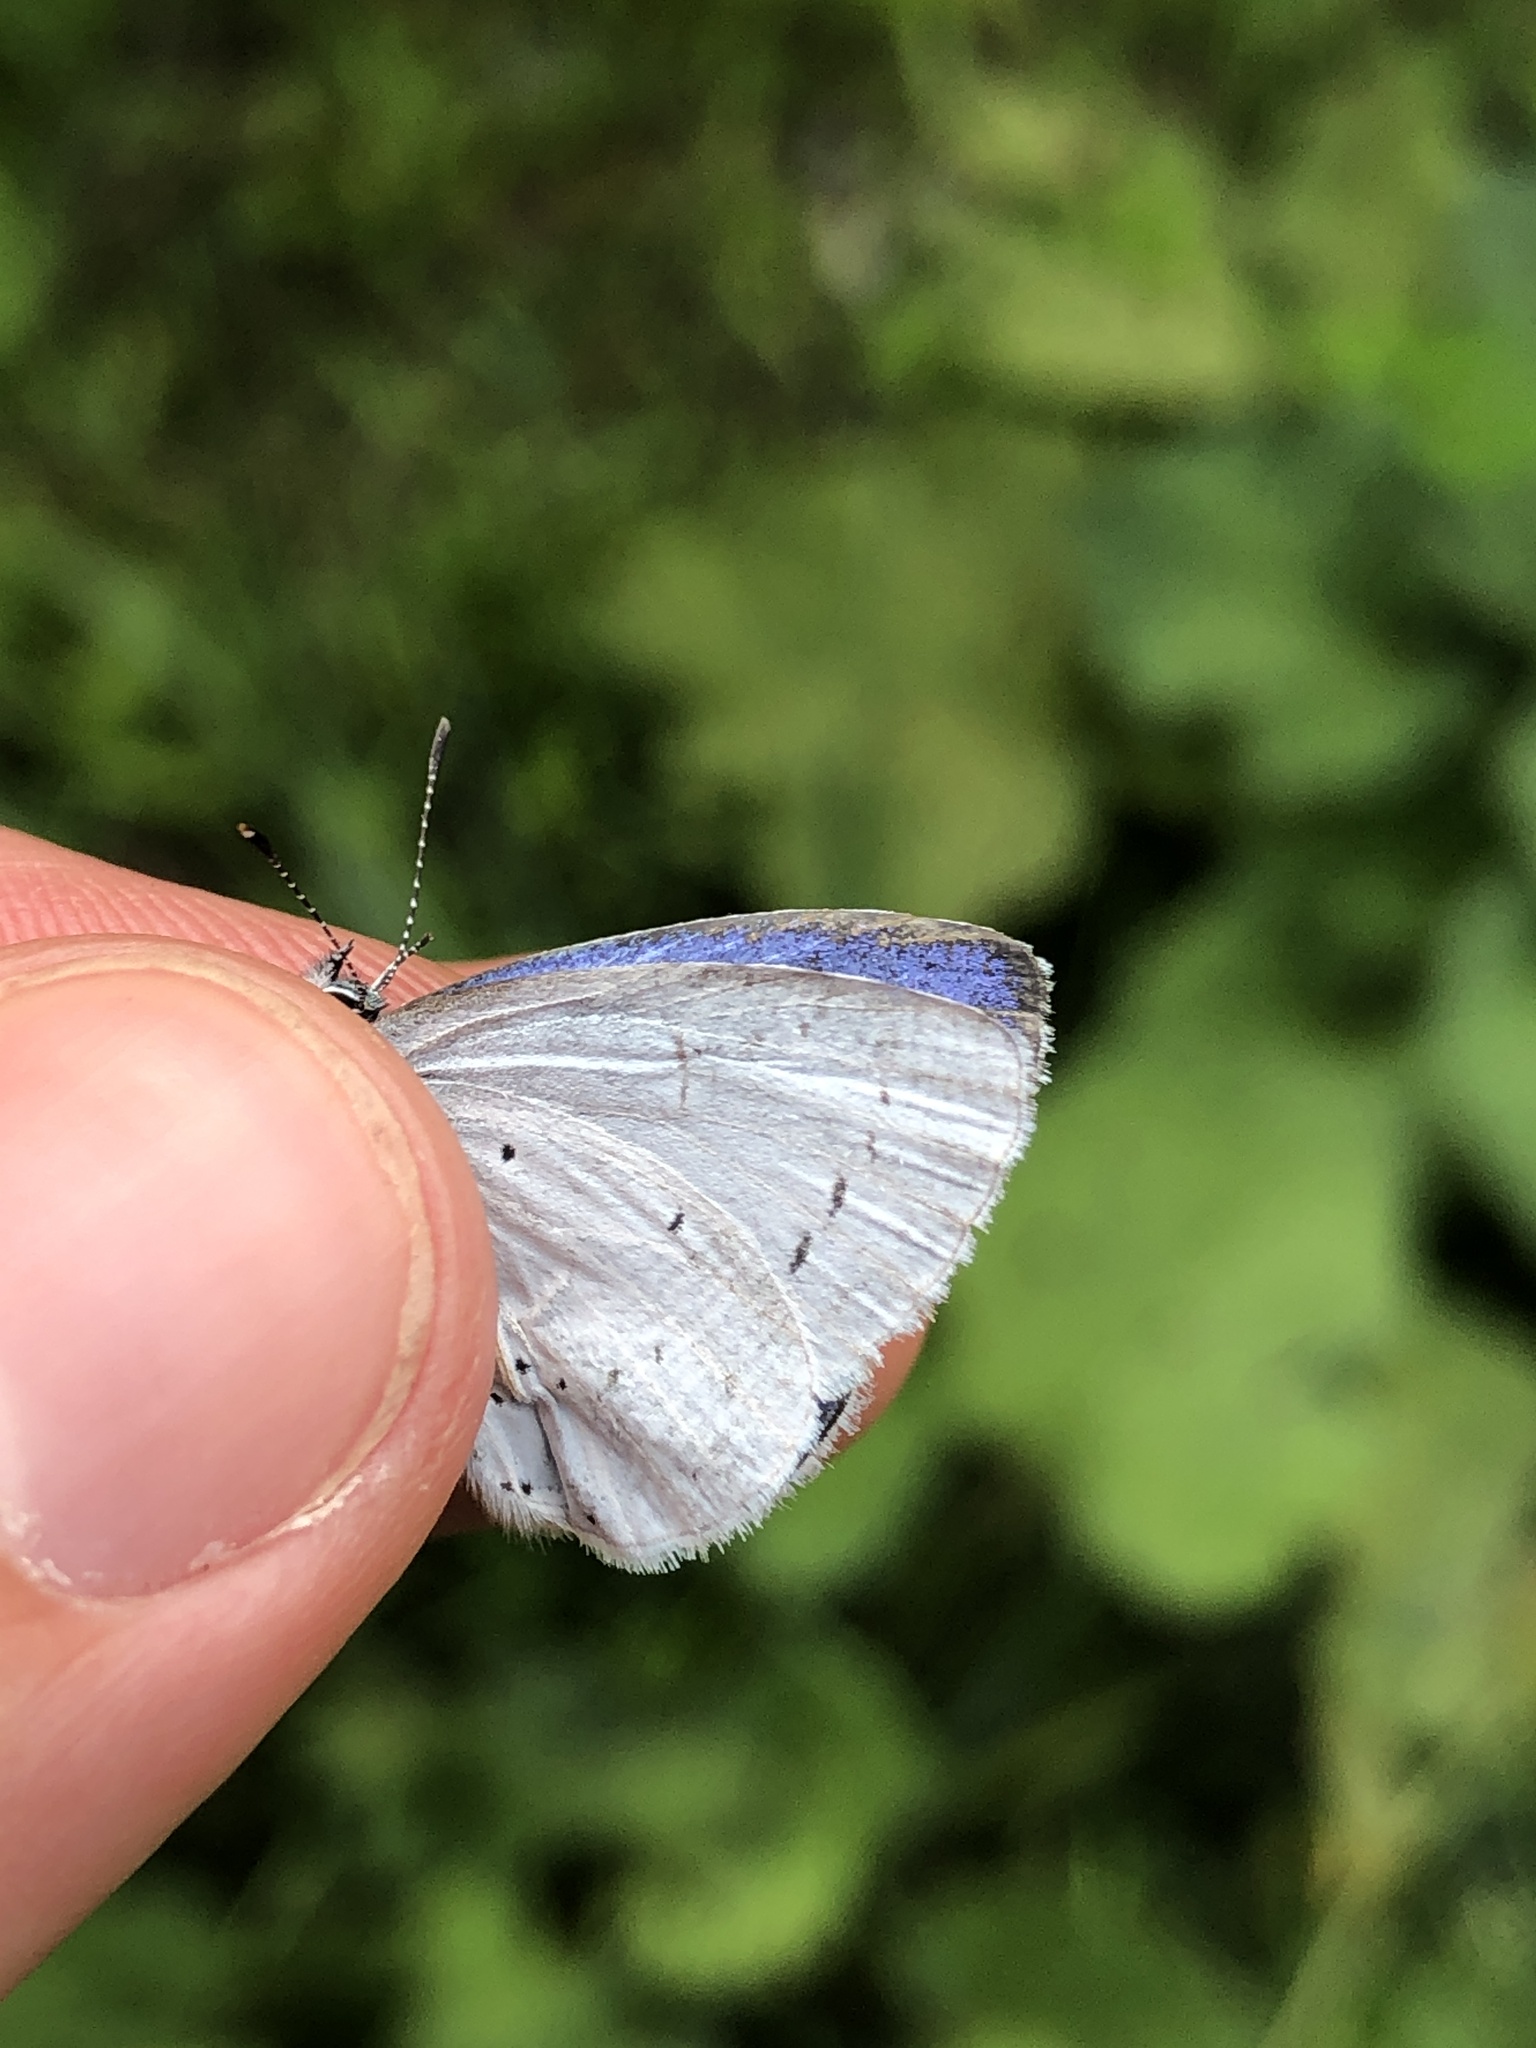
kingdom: Animalia
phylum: Arthropoda
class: Insecta
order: Lepidoptera
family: Lycaenidae
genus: Celastrina
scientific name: Celastrina argiolus
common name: Holly blue
